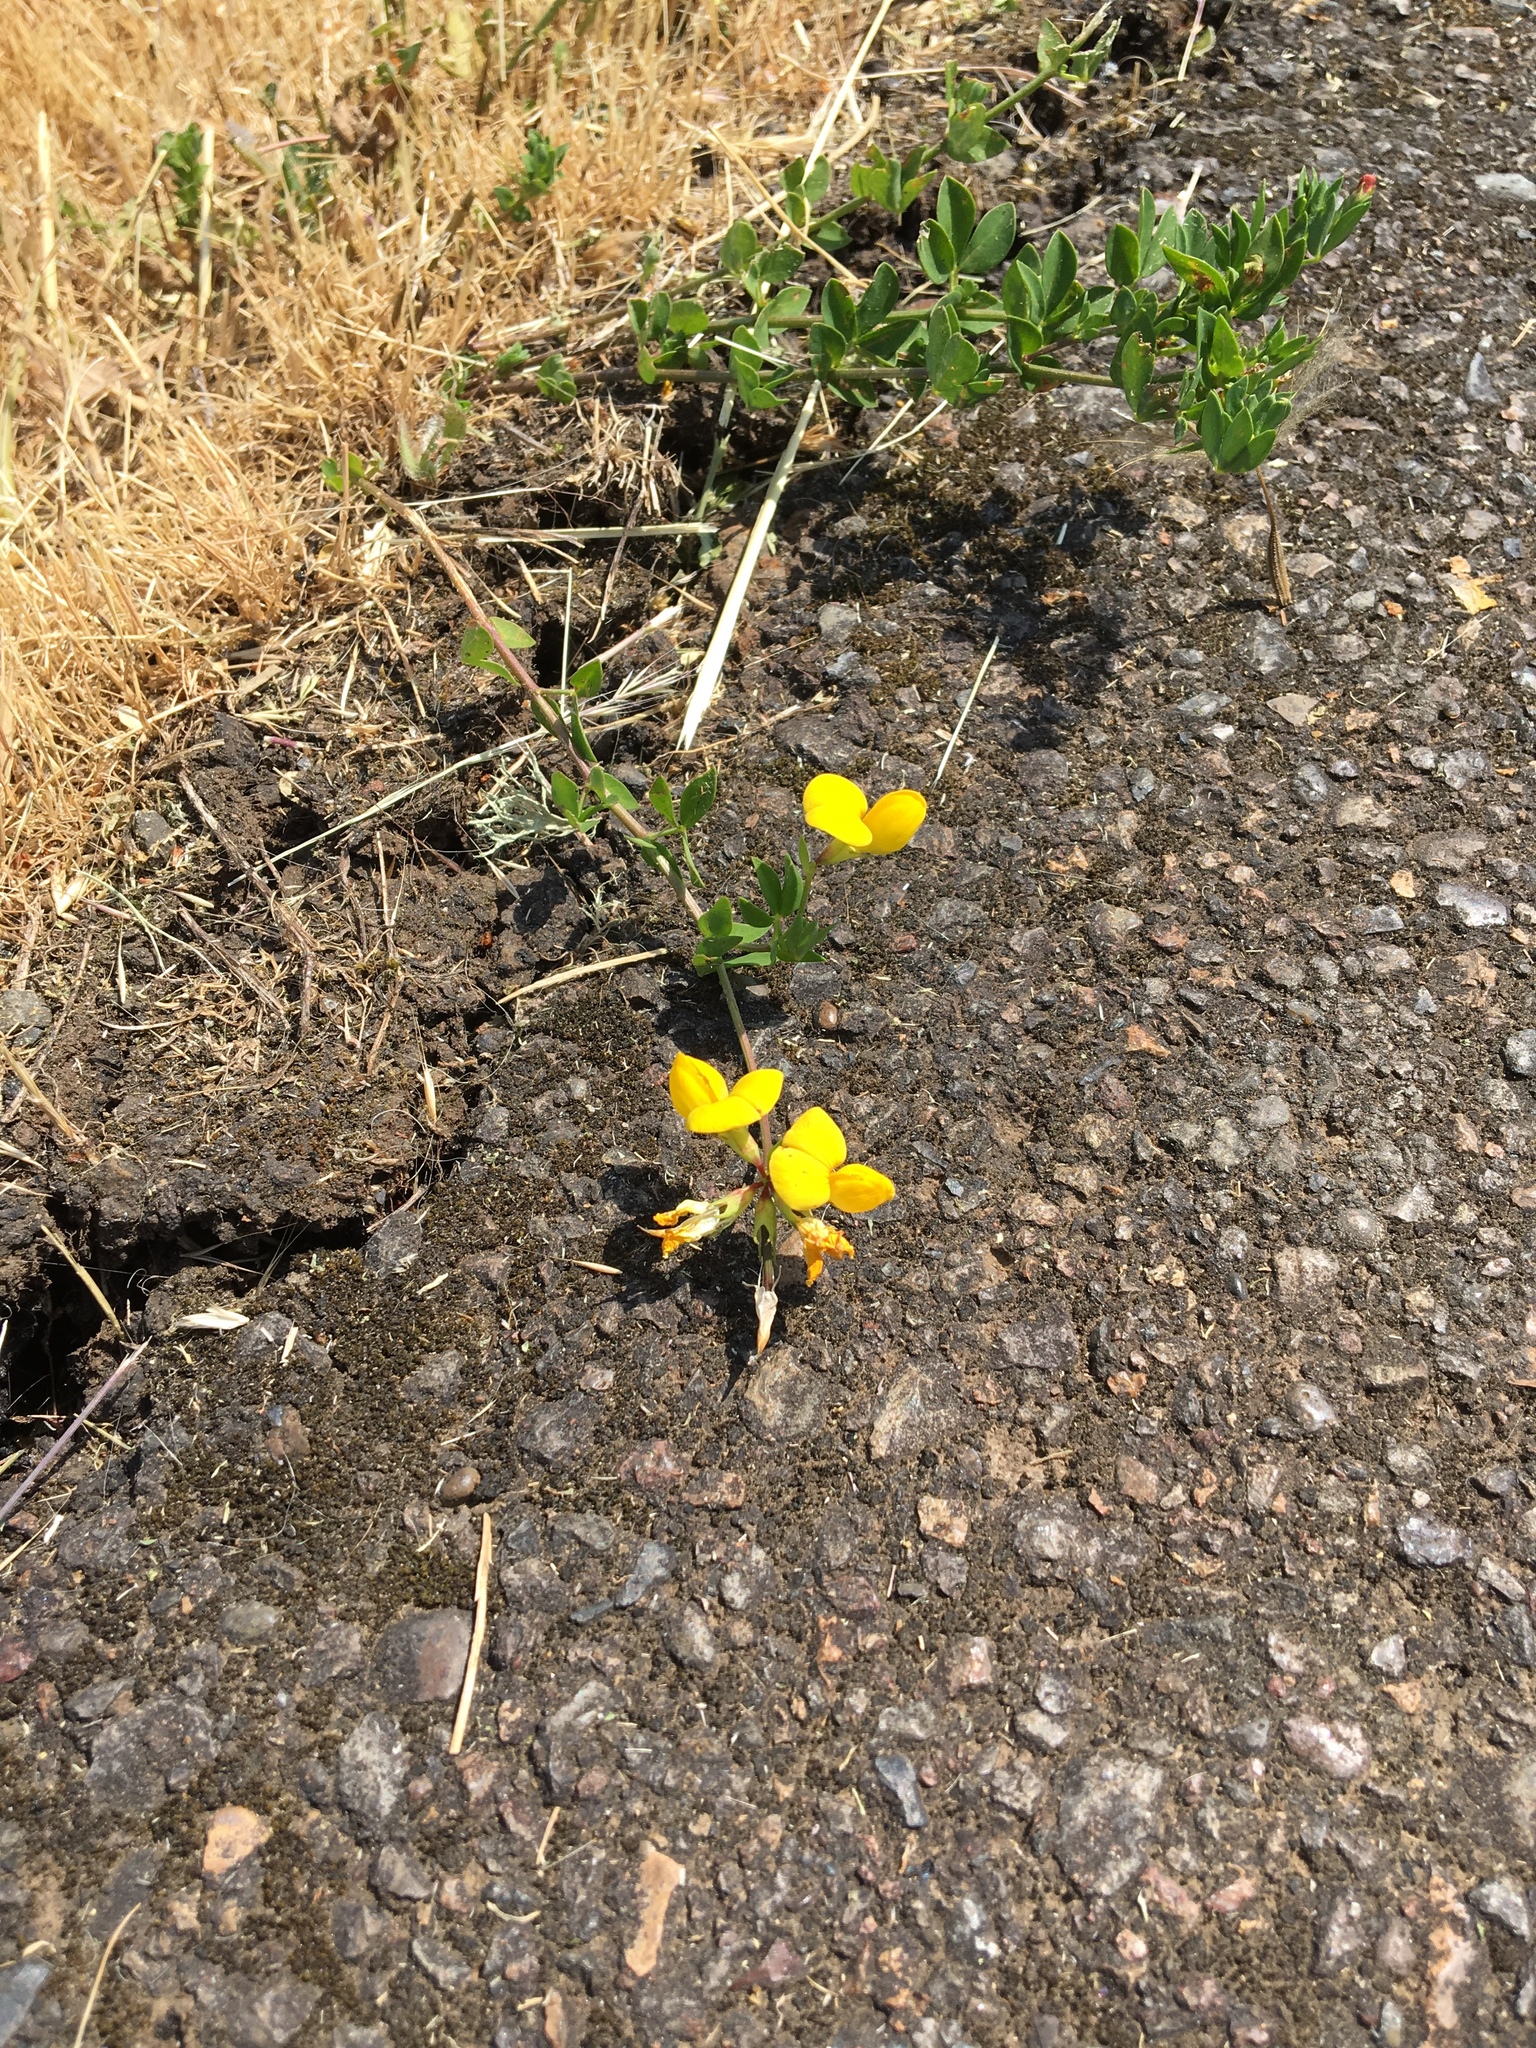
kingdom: Plantae
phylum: Tracheophyta
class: Magnoliopsida
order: Fabales
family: Fabaceae
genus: Lotus
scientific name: Lotus corniculatus
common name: Common bird's-foot-trefoil
